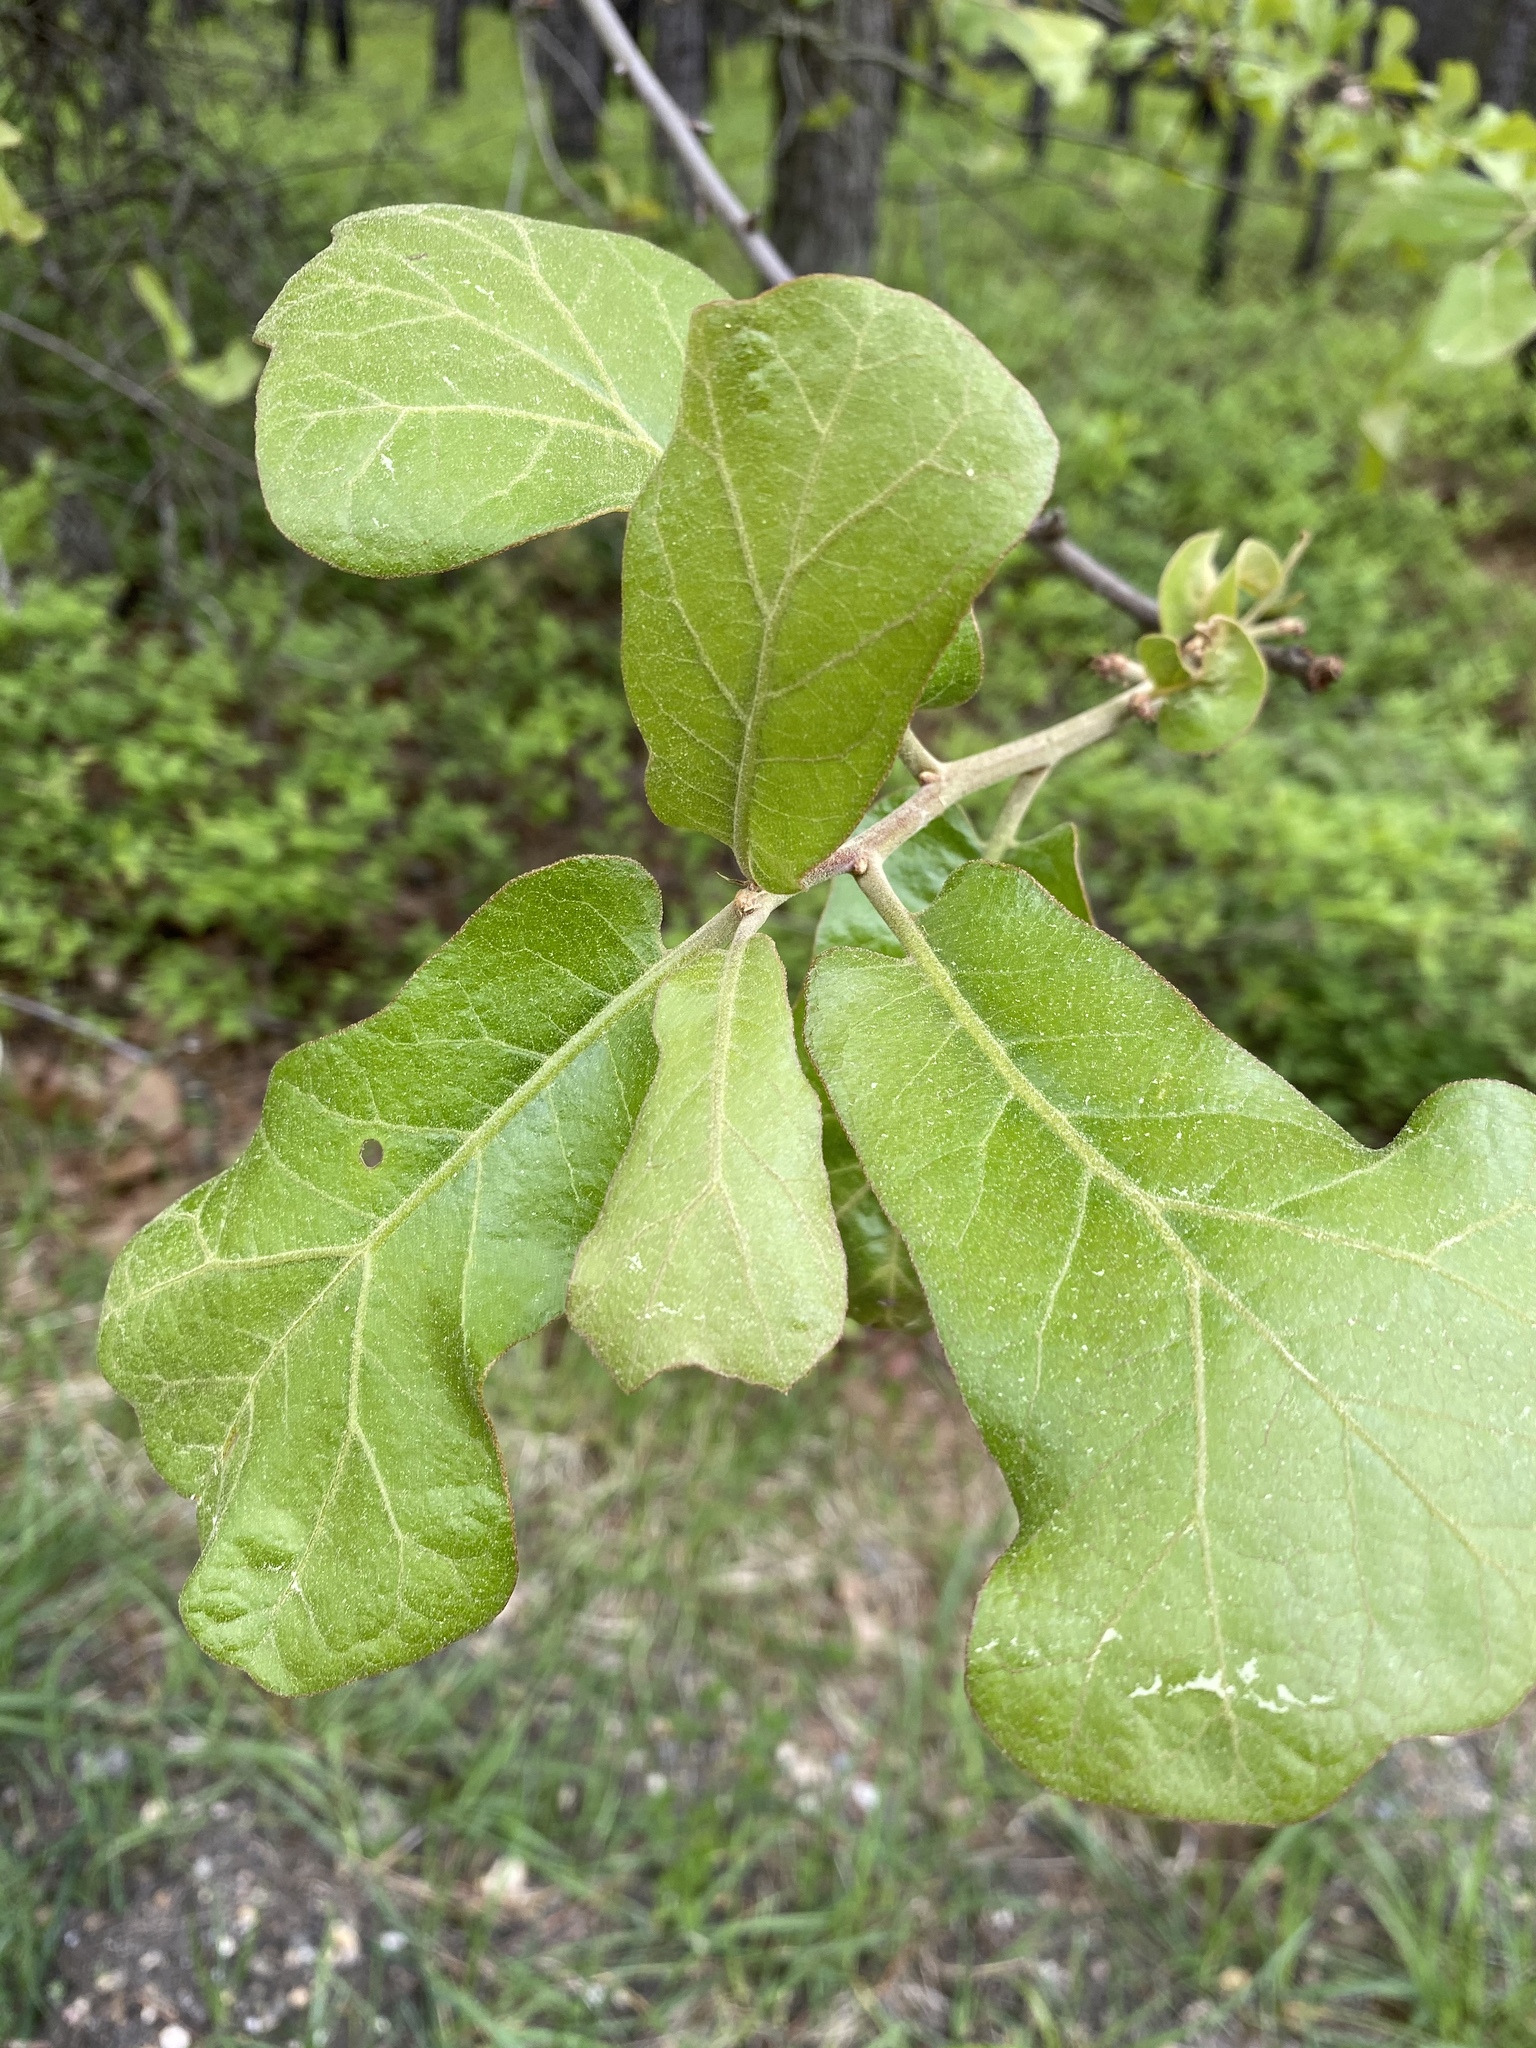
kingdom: Plantae
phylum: Tracheophyta
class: Magnoliopsida
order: Fagales
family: Fagaceae
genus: Quercus
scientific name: Quercus marilandica
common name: Blackjack oak
